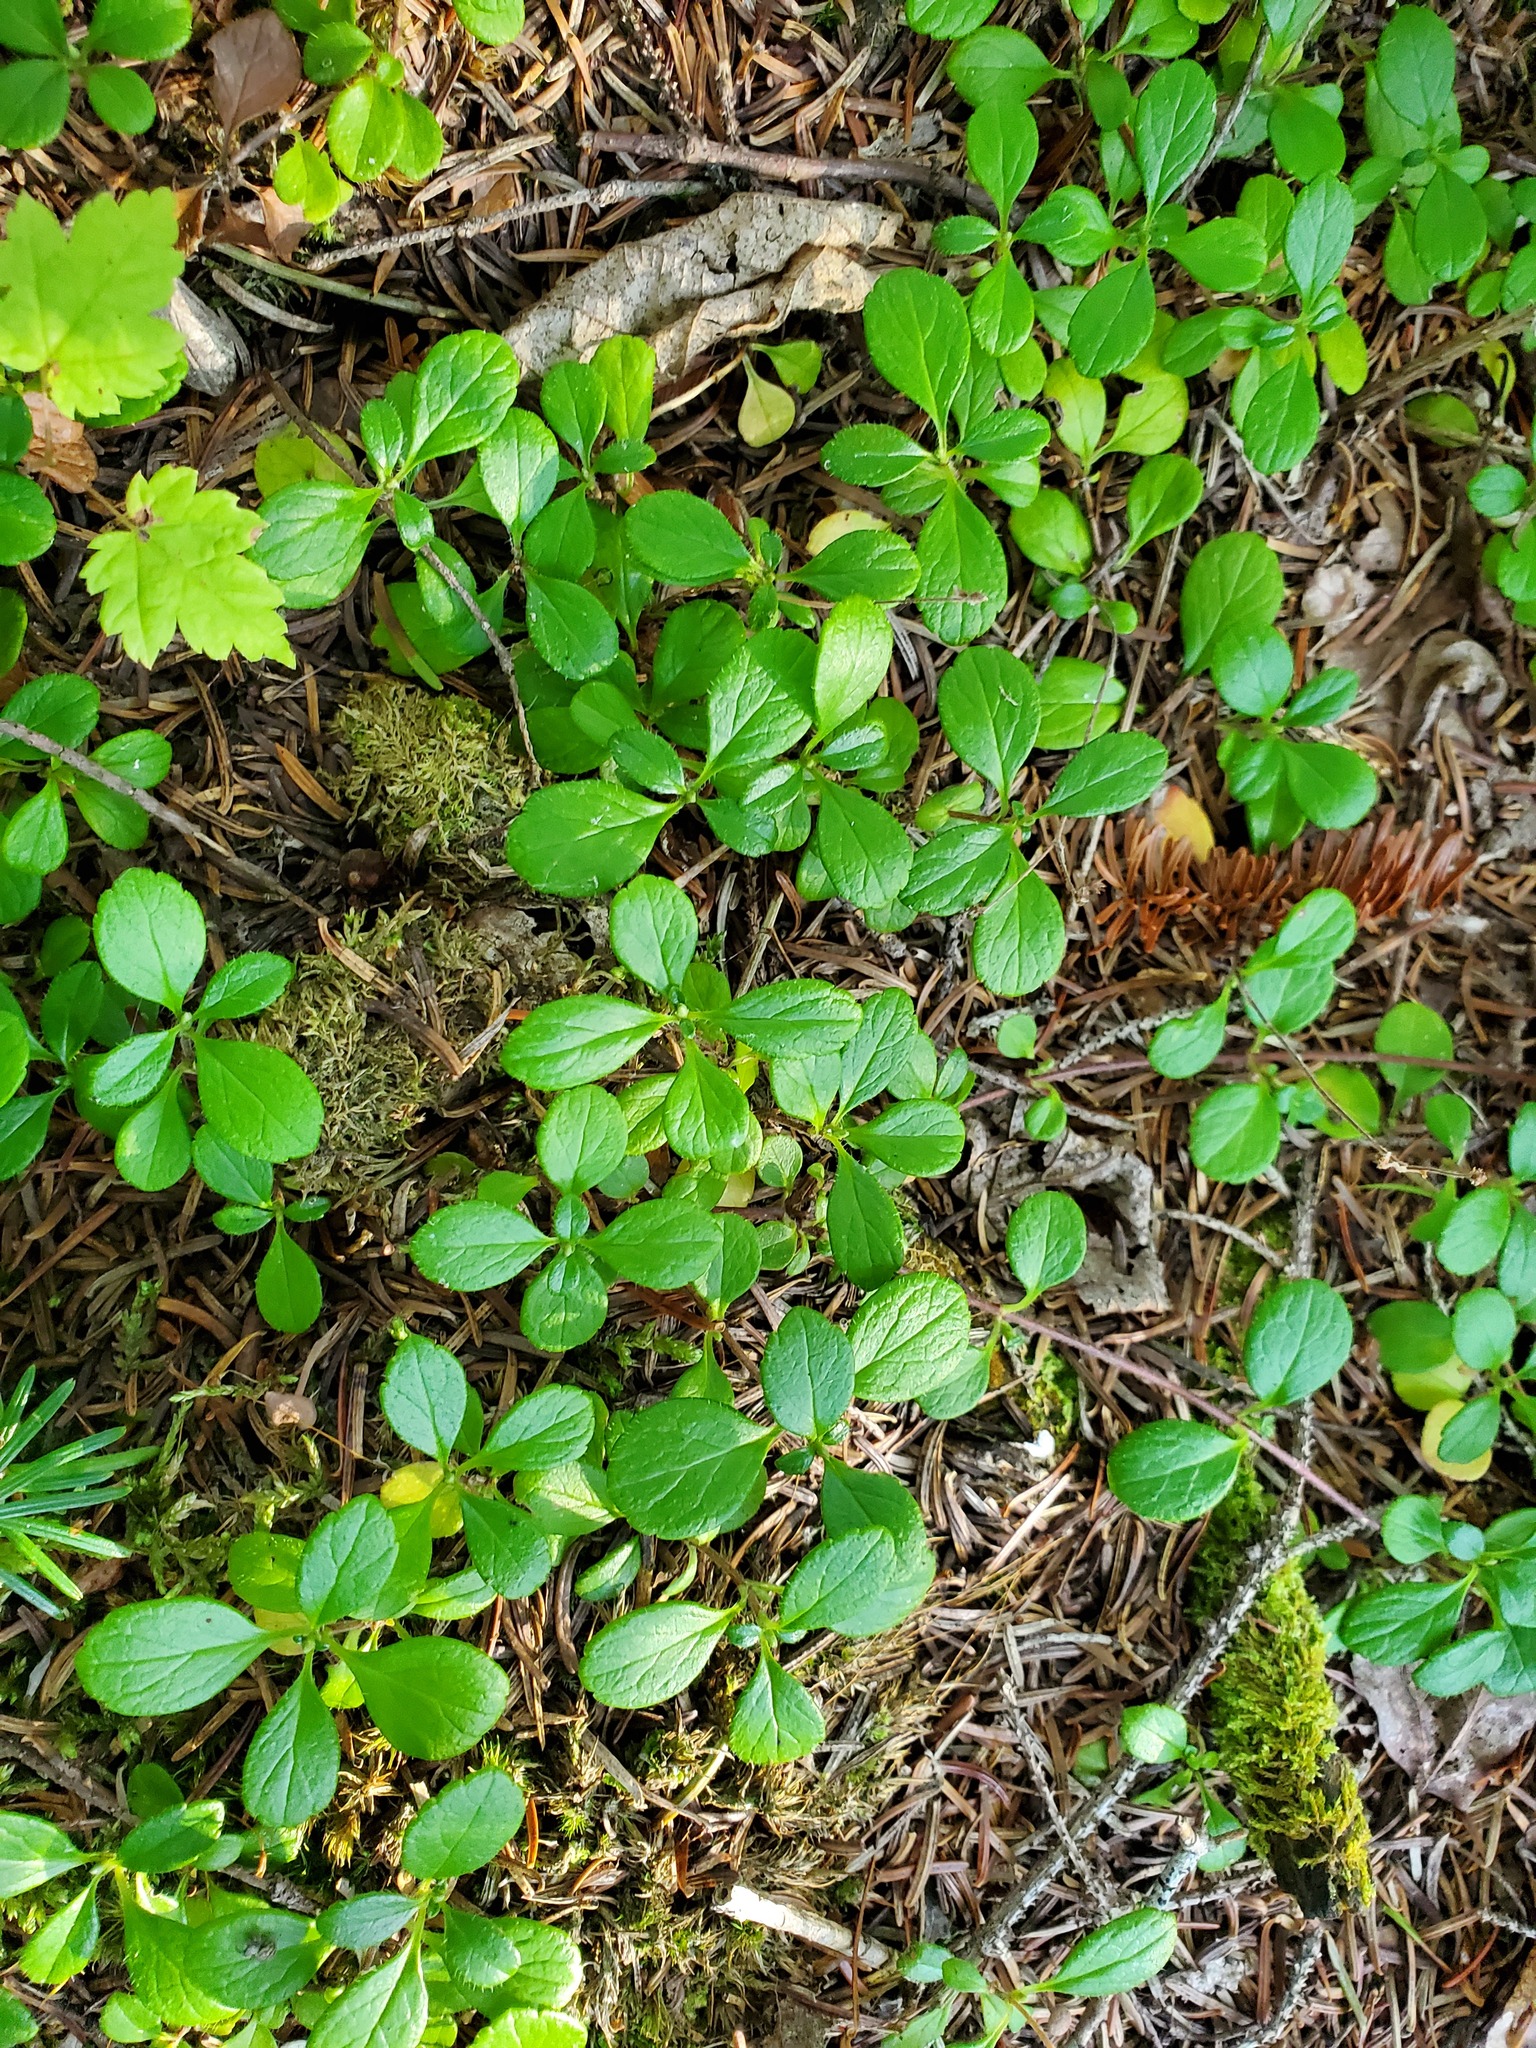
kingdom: Plantae
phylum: Tracheophyta
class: Magnoliopsida
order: Dipsacales
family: Caprifoliaceae
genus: Linnaea
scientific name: Linnaea borealis
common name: Twinflower
